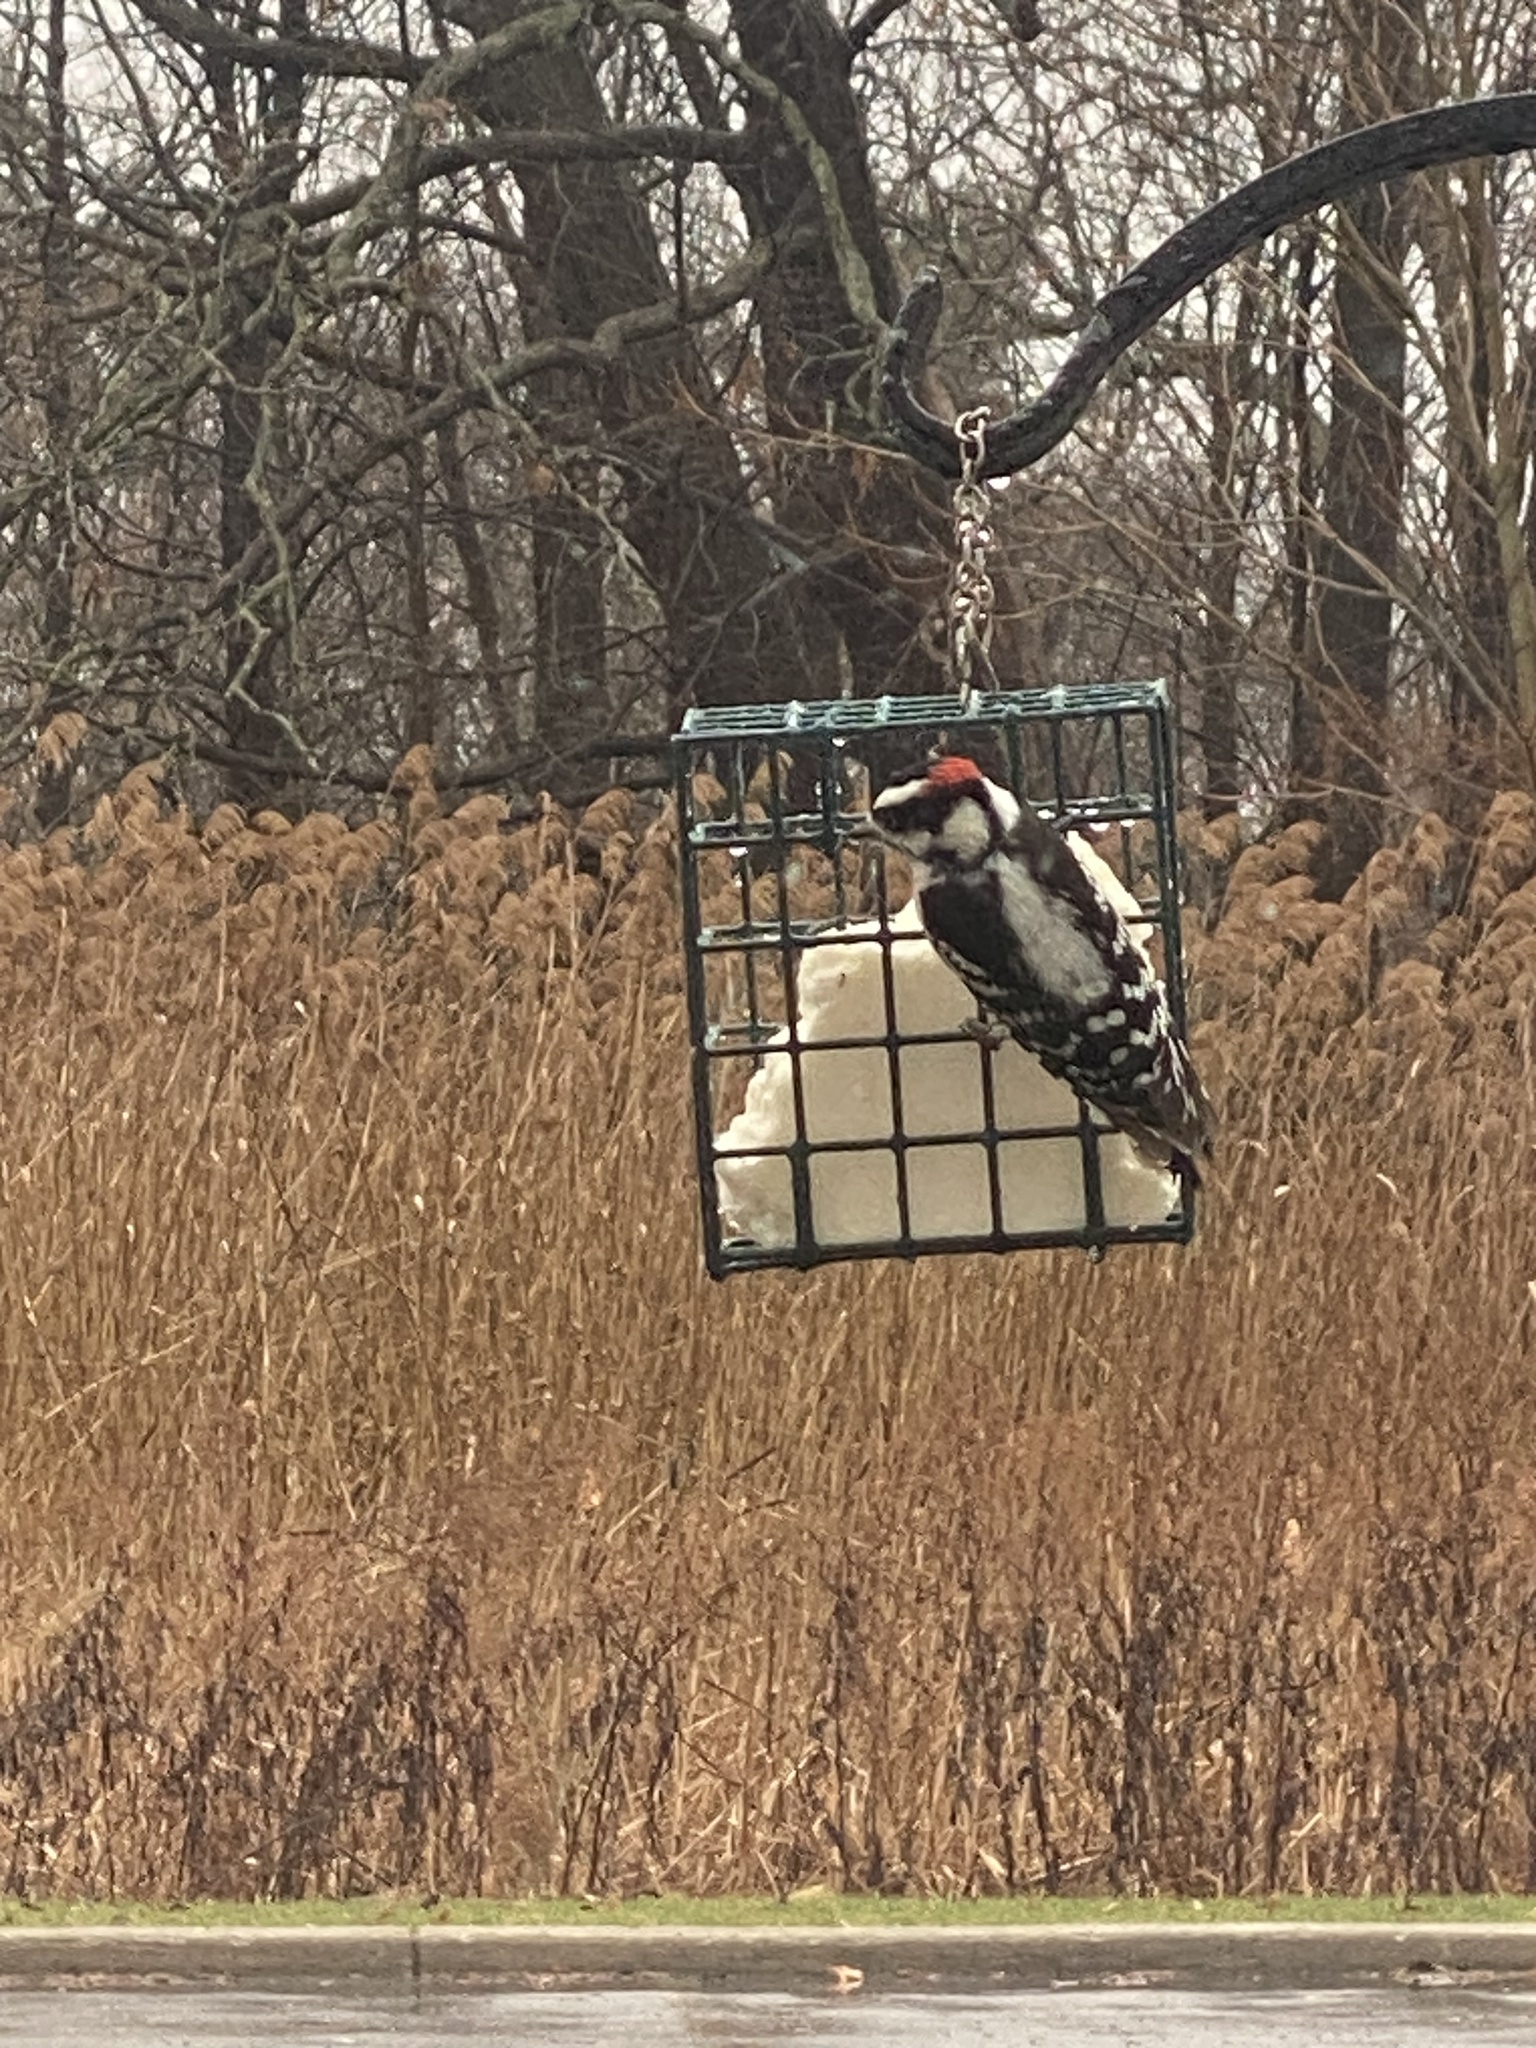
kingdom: Animalia
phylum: Chordata
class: Aves
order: Piciformes
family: Picidae
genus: Dryobates
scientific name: Dryobates pubescens
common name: Downy woodpecker
